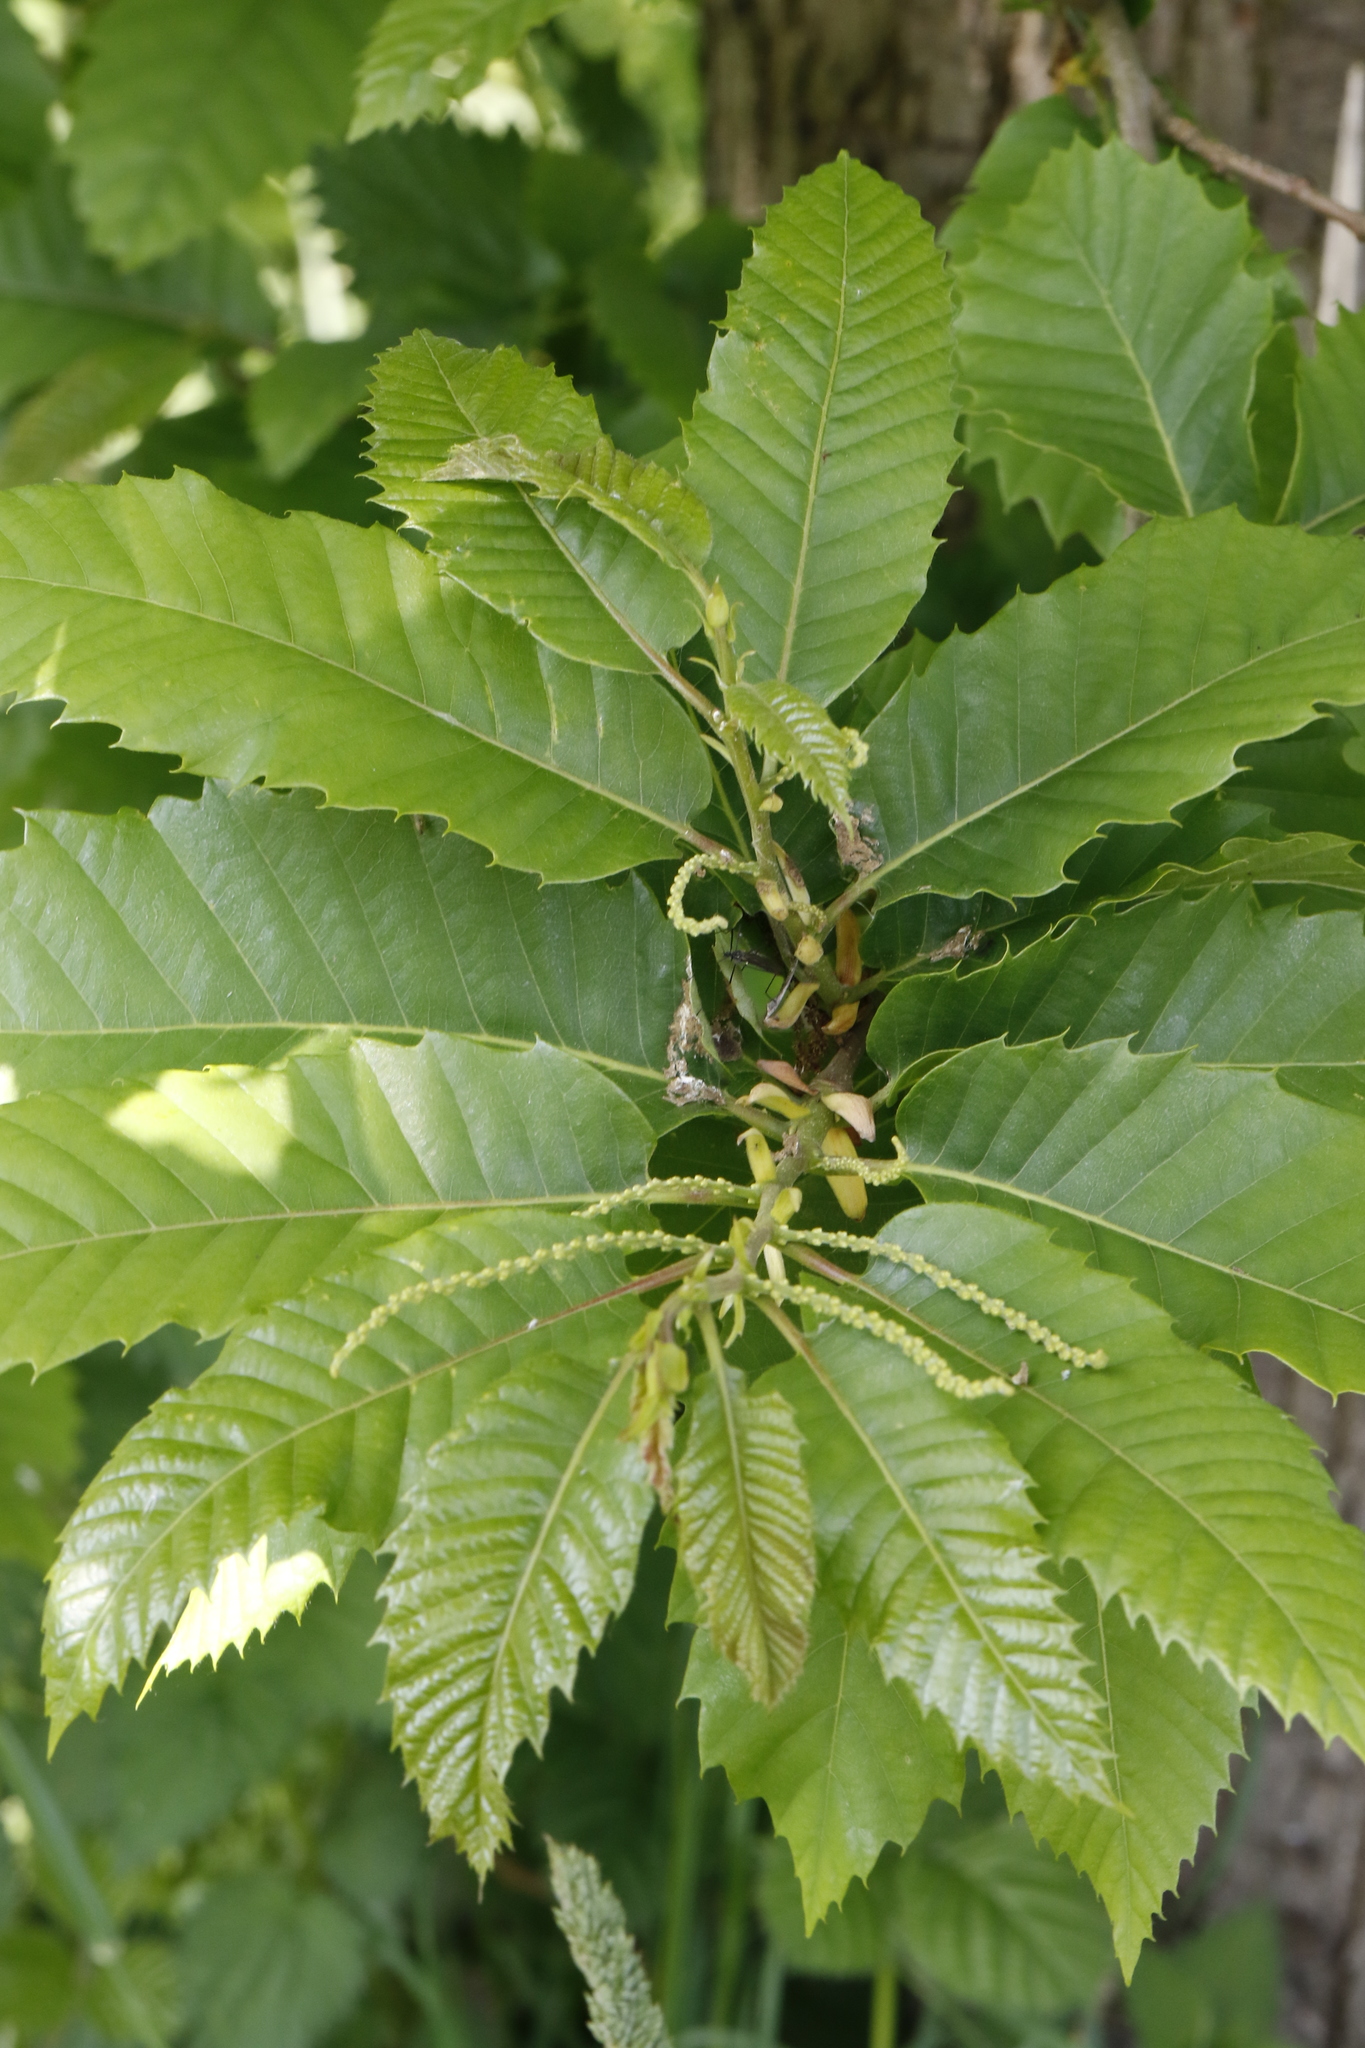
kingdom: Plantae
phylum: Tracheophyta
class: Magnoliopsida
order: Fagales
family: Fagaceae
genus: Castanea
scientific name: Castanea sativa
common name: Sweet chestnut
